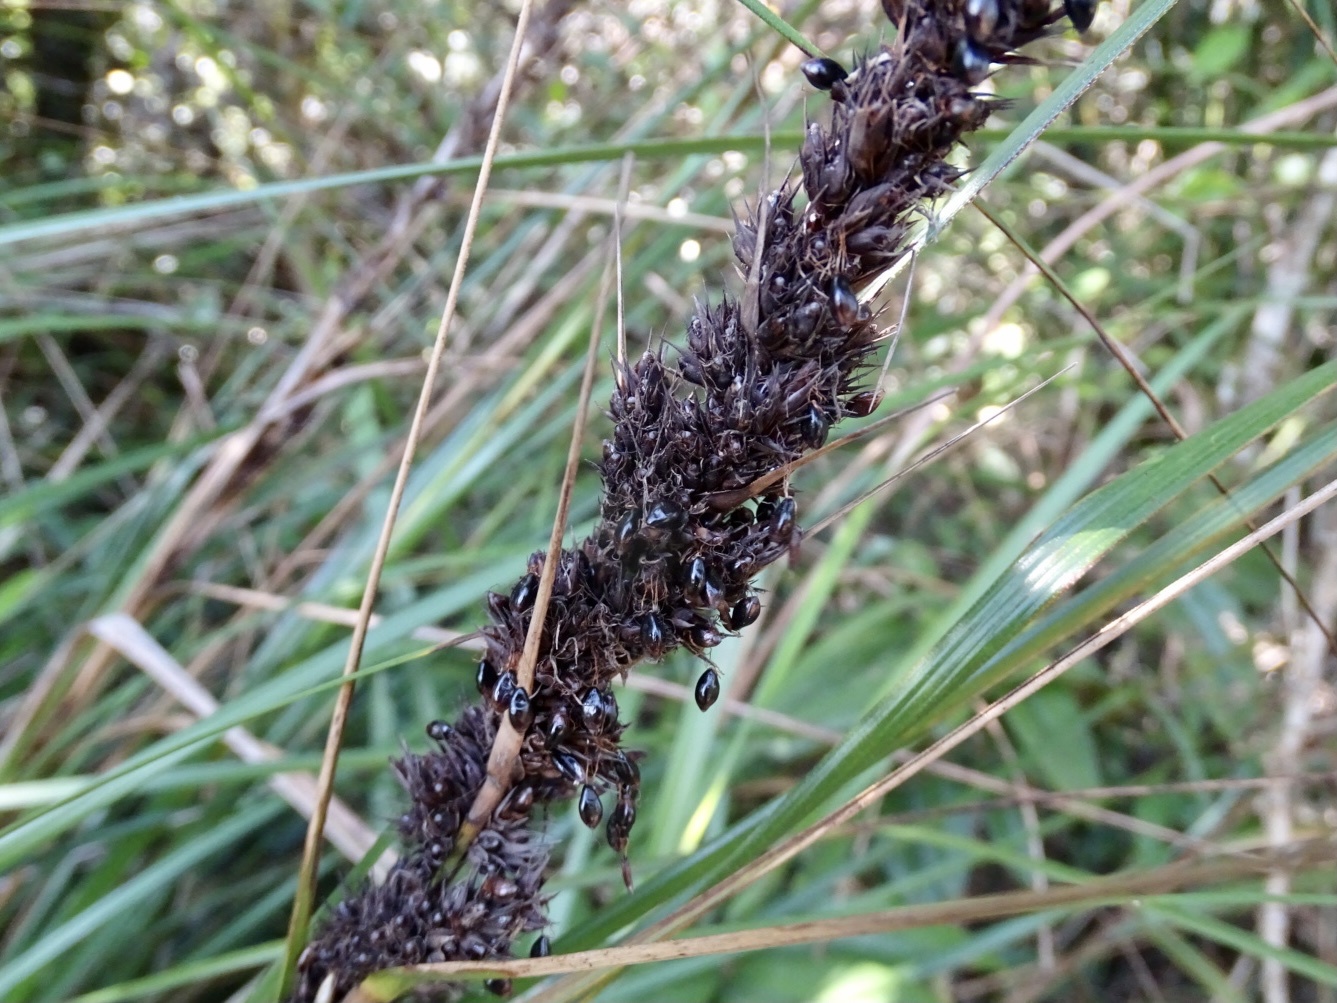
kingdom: Plantae
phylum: Tracheophyta
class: Liliopsida
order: Poales
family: Cyperaceae
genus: Gahnia
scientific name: Gahnia tristis
